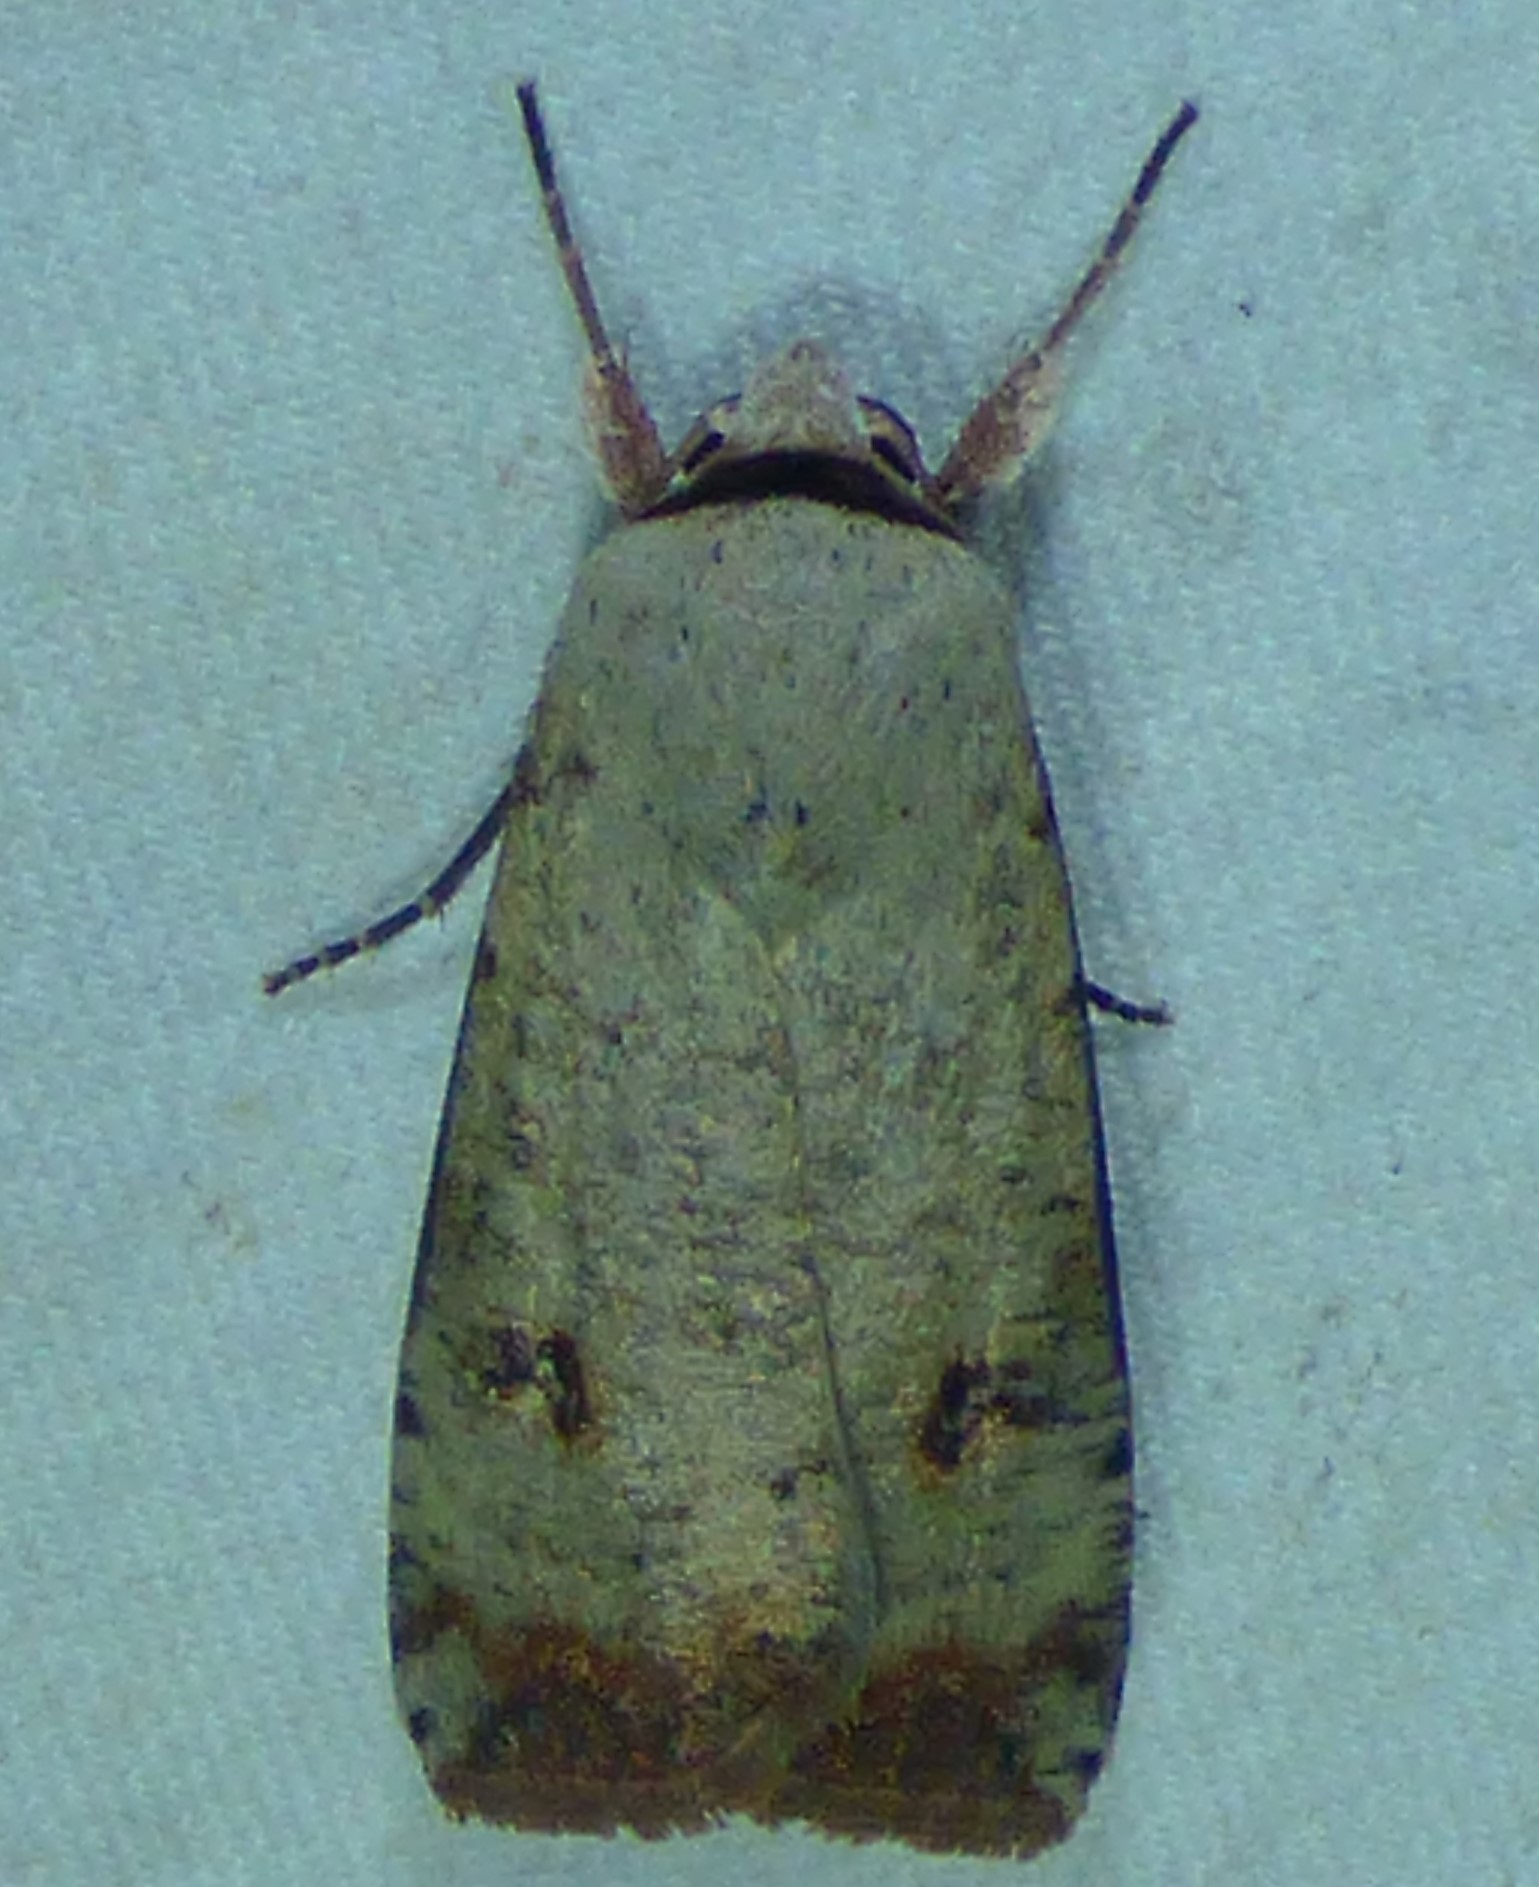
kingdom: Animalia
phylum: Arthropoda
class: Insecta
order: Lepidoptera
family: Noctuidae
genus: Anicla
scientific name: Anicla infecta
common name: Green cutworm
